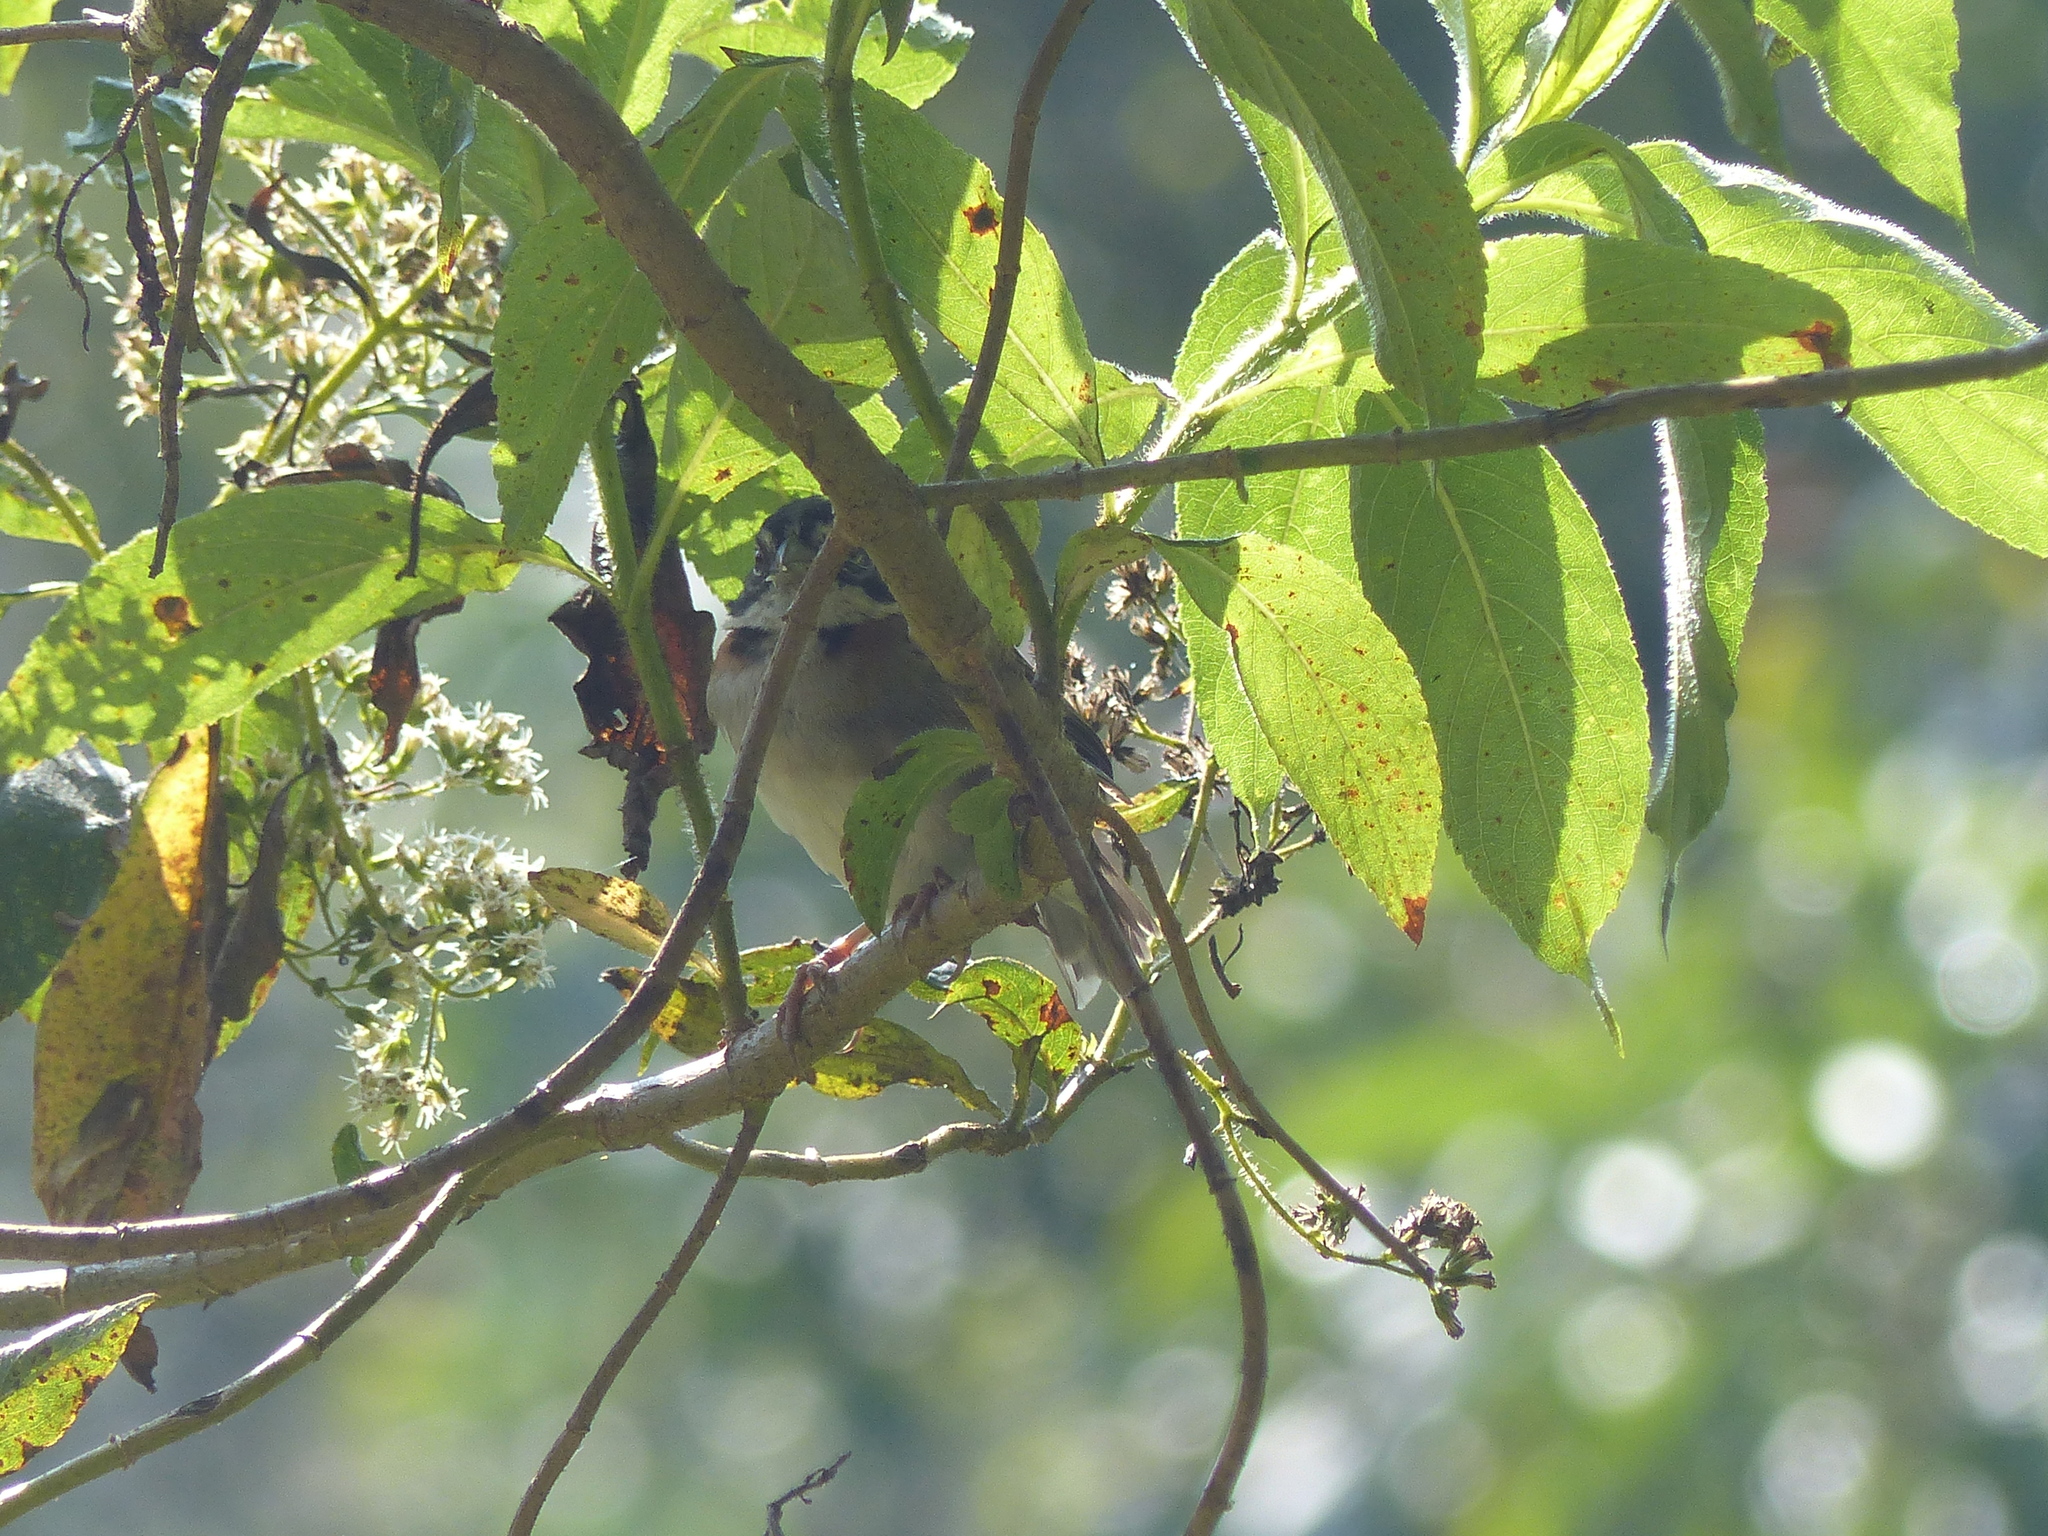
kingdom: Animalia
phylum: Chordata
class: Aves
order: Passeriformes
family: Passerellidae
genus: Zonotrichia
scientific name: Zonotrichia capensis
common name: Rufous-collared sparrow
